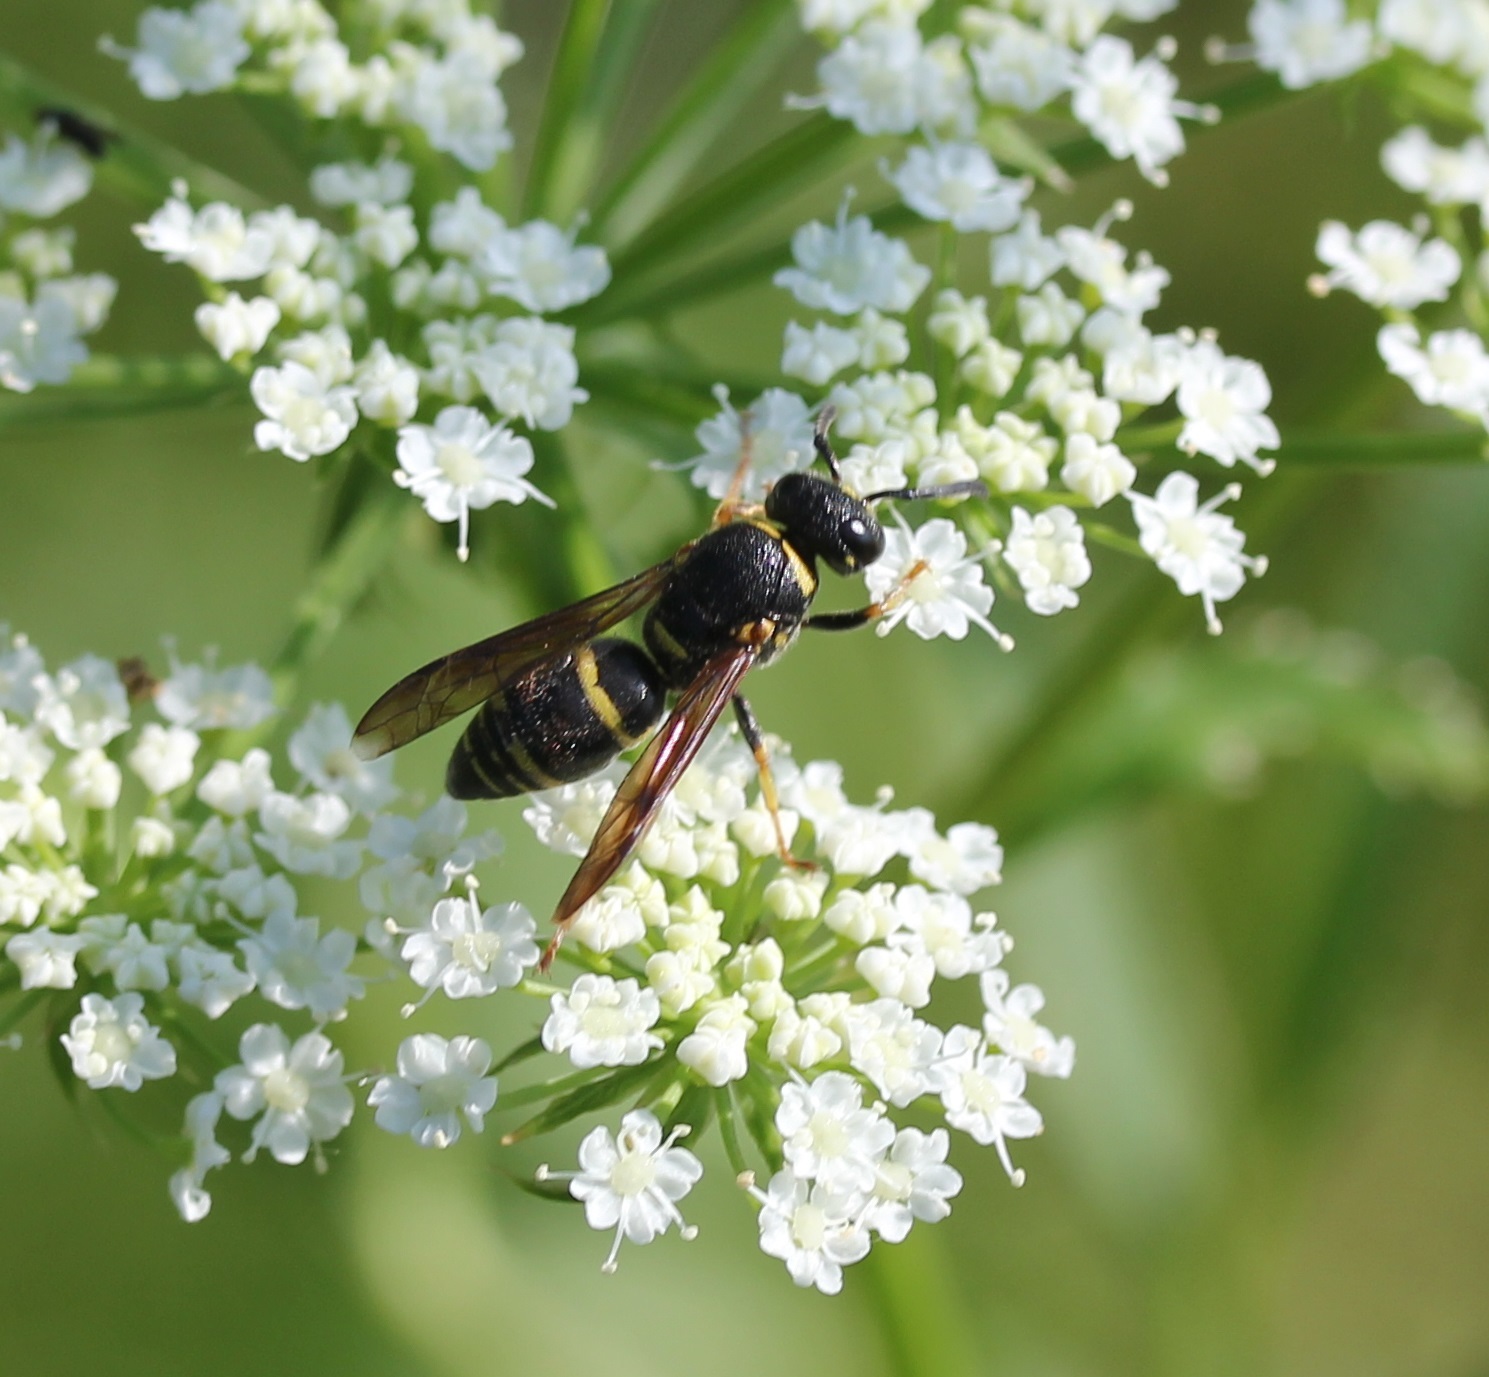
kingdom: Animalia
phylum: Arthropoda
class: Insecta
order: Hymenoptera
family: Eumenidae
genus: Euodynerus
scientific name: Euodynerus foraminatus
